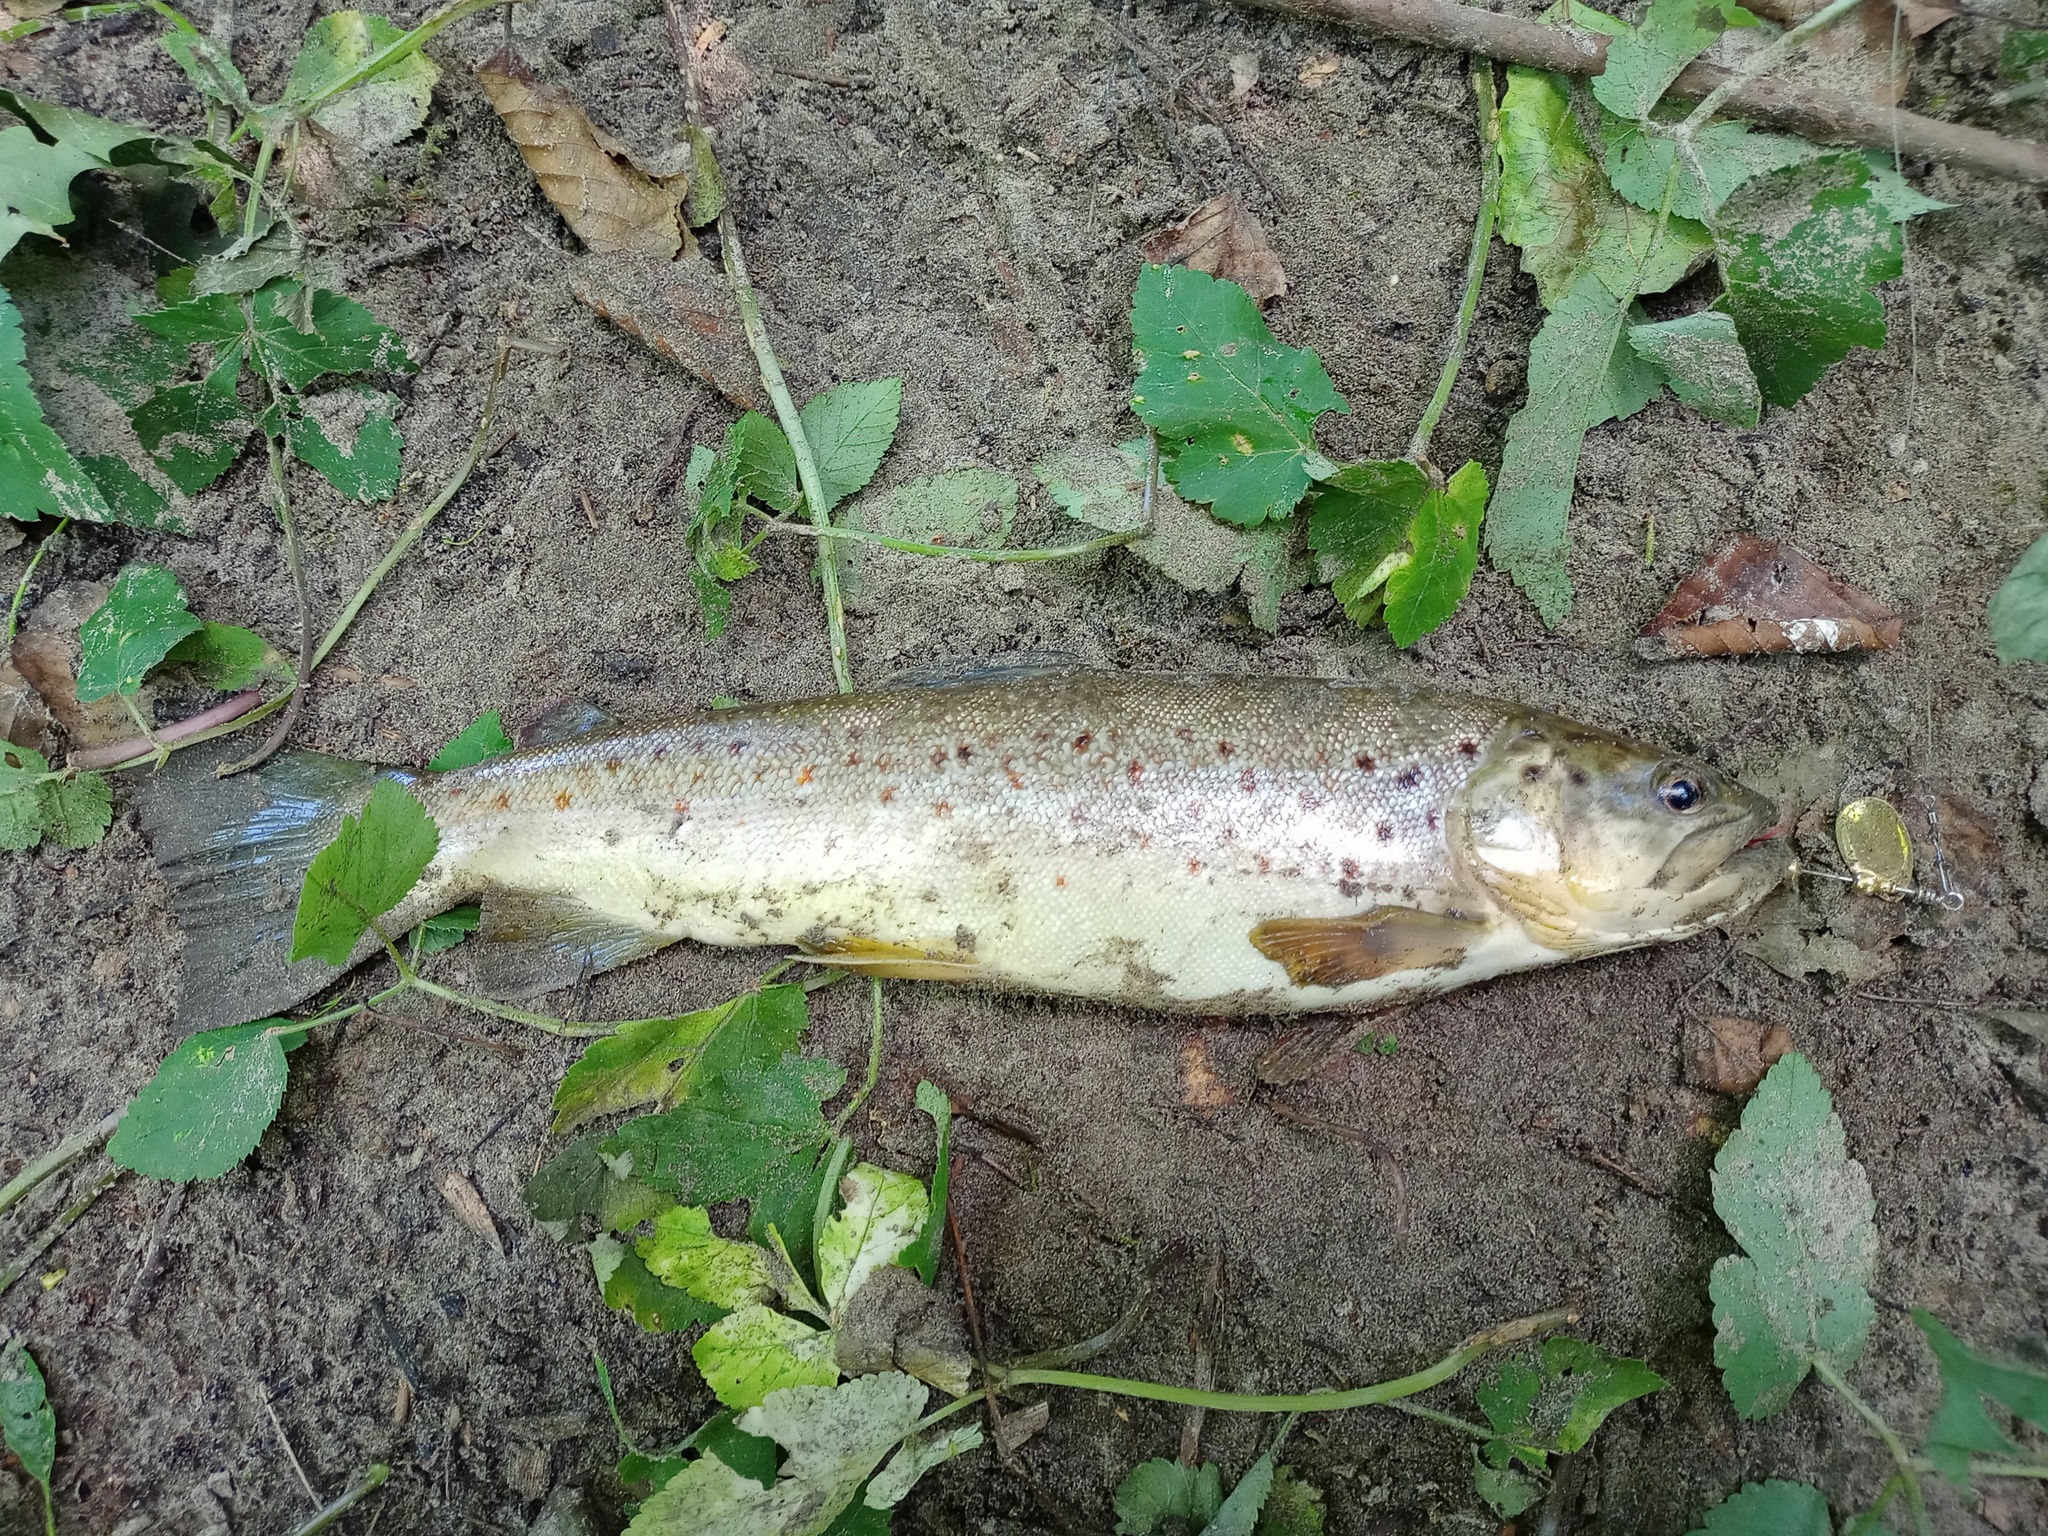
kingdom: Animalia
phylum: Chordata
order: Salmoniformes
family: Salmonidae
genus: Salmo
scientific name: Salmo trutta
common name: Brown trout
